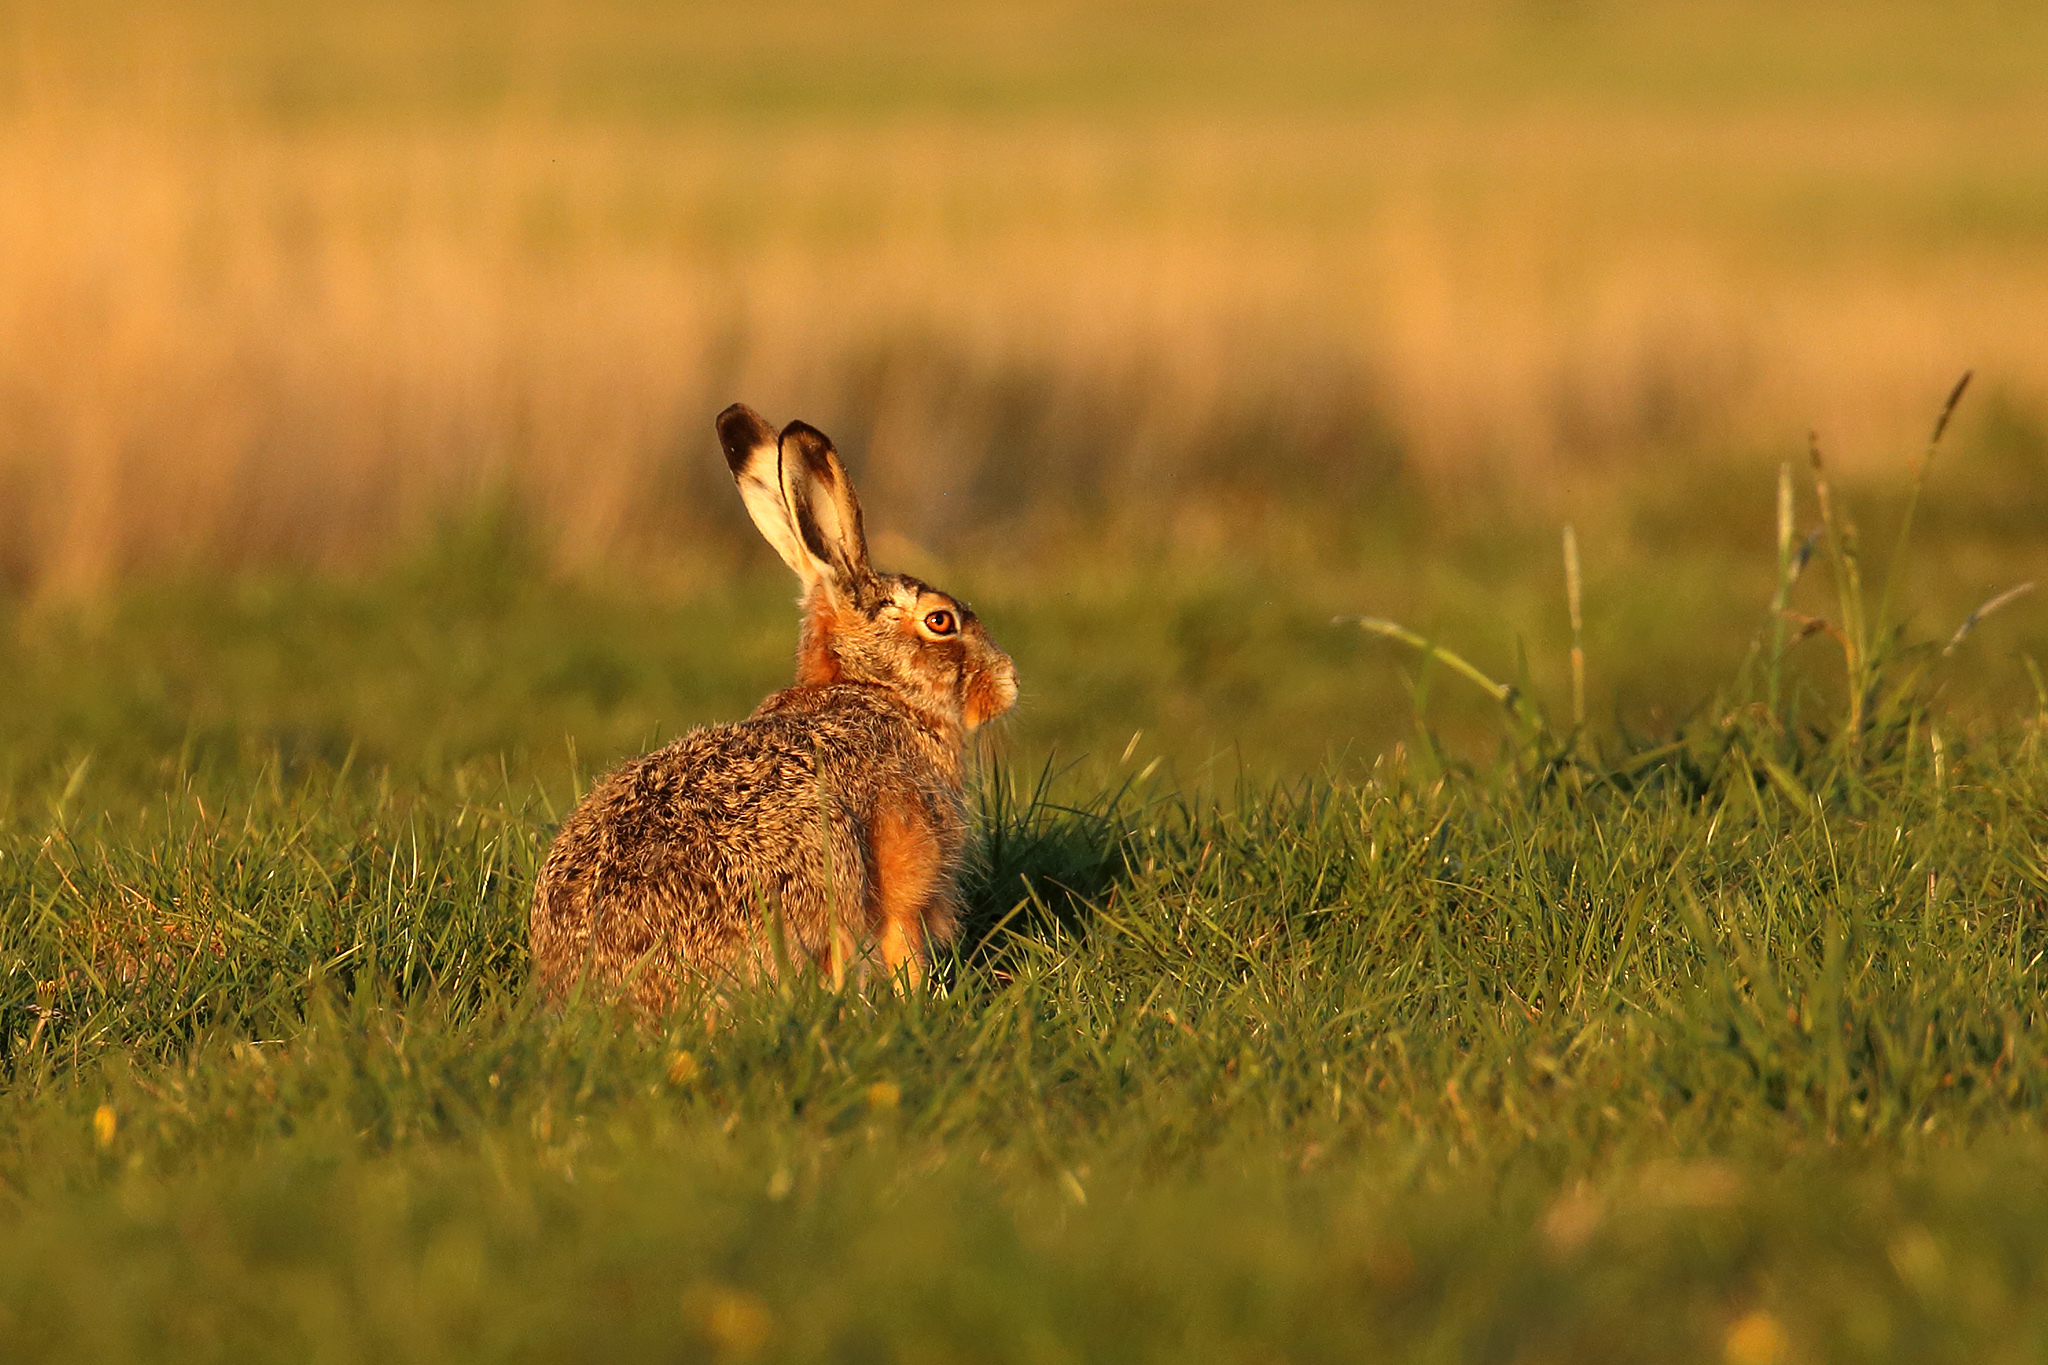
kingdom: Animalia
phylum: Chordata
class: Mammalia
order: Lagomorpha
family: Leporidae
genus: Lepus
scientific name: Lepus europaeus
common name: European hare
